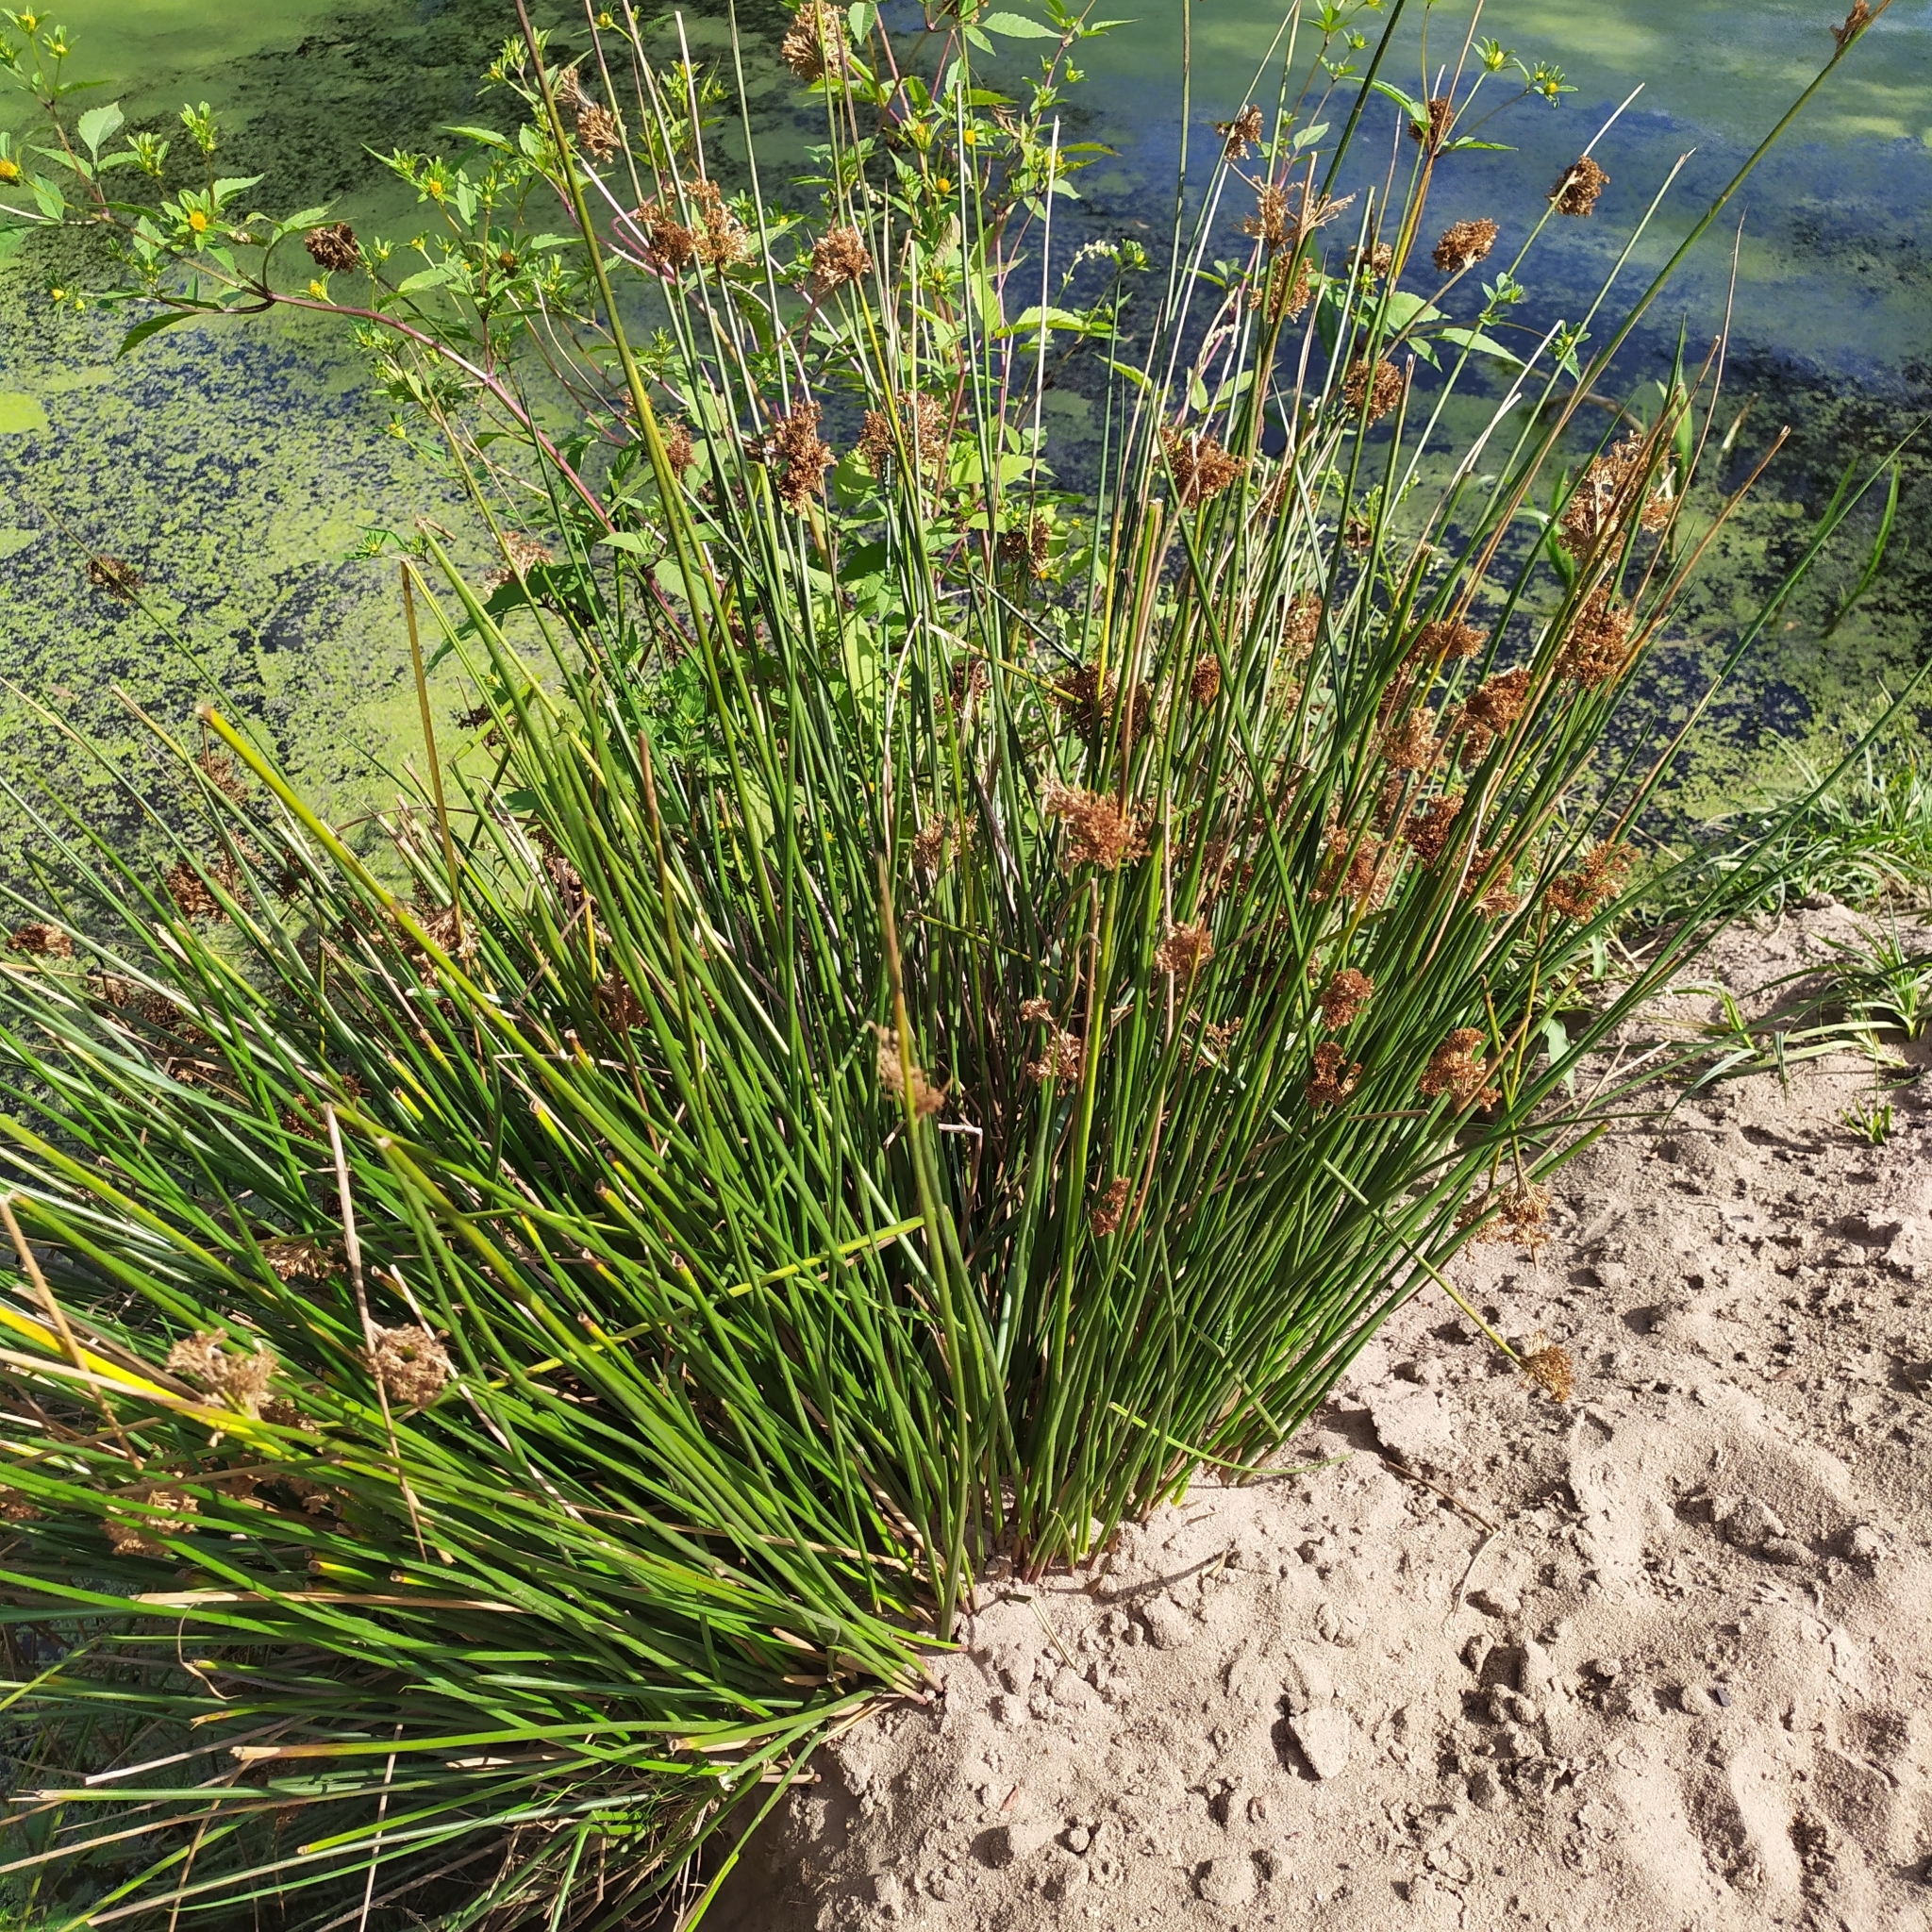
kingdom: Plantae
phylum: Tracheophyta
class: Liliopsida
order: Poales
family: Juncaceae
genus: Juncus
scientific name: Juncus effusus
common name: Soft rush
